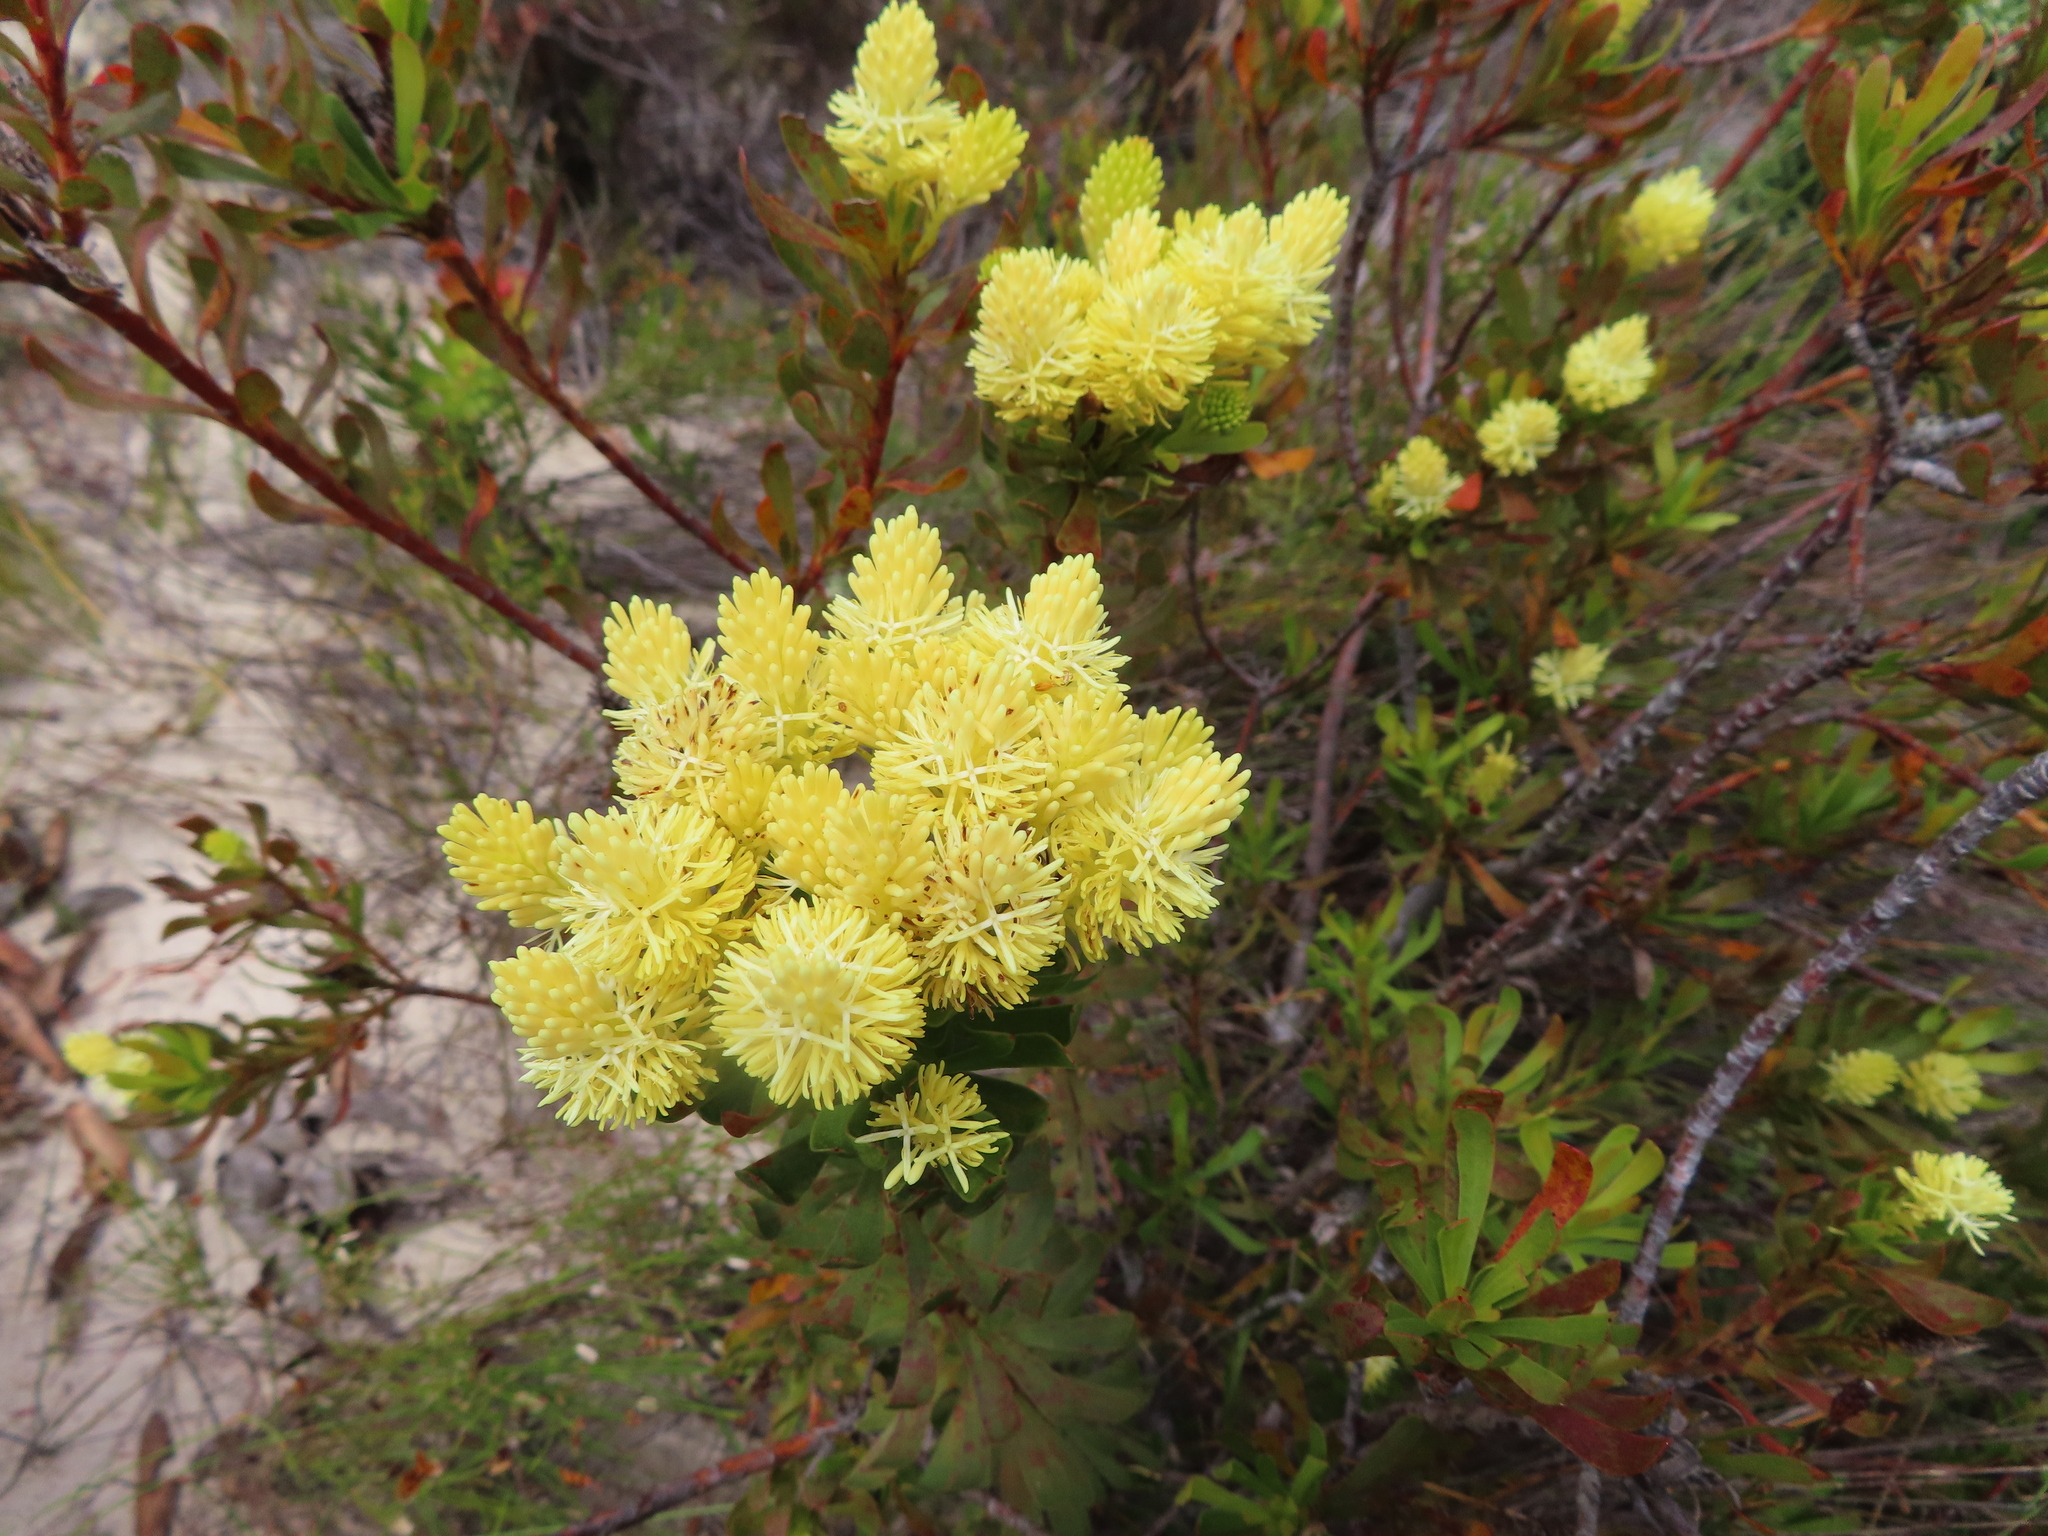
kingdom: Plantae
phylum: Tracheophyta
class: Magnoliopsida
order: Proteales
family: Proteaceae
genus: Aulax
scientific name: Aulax umbellata
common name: Broad-leaf featherbush
